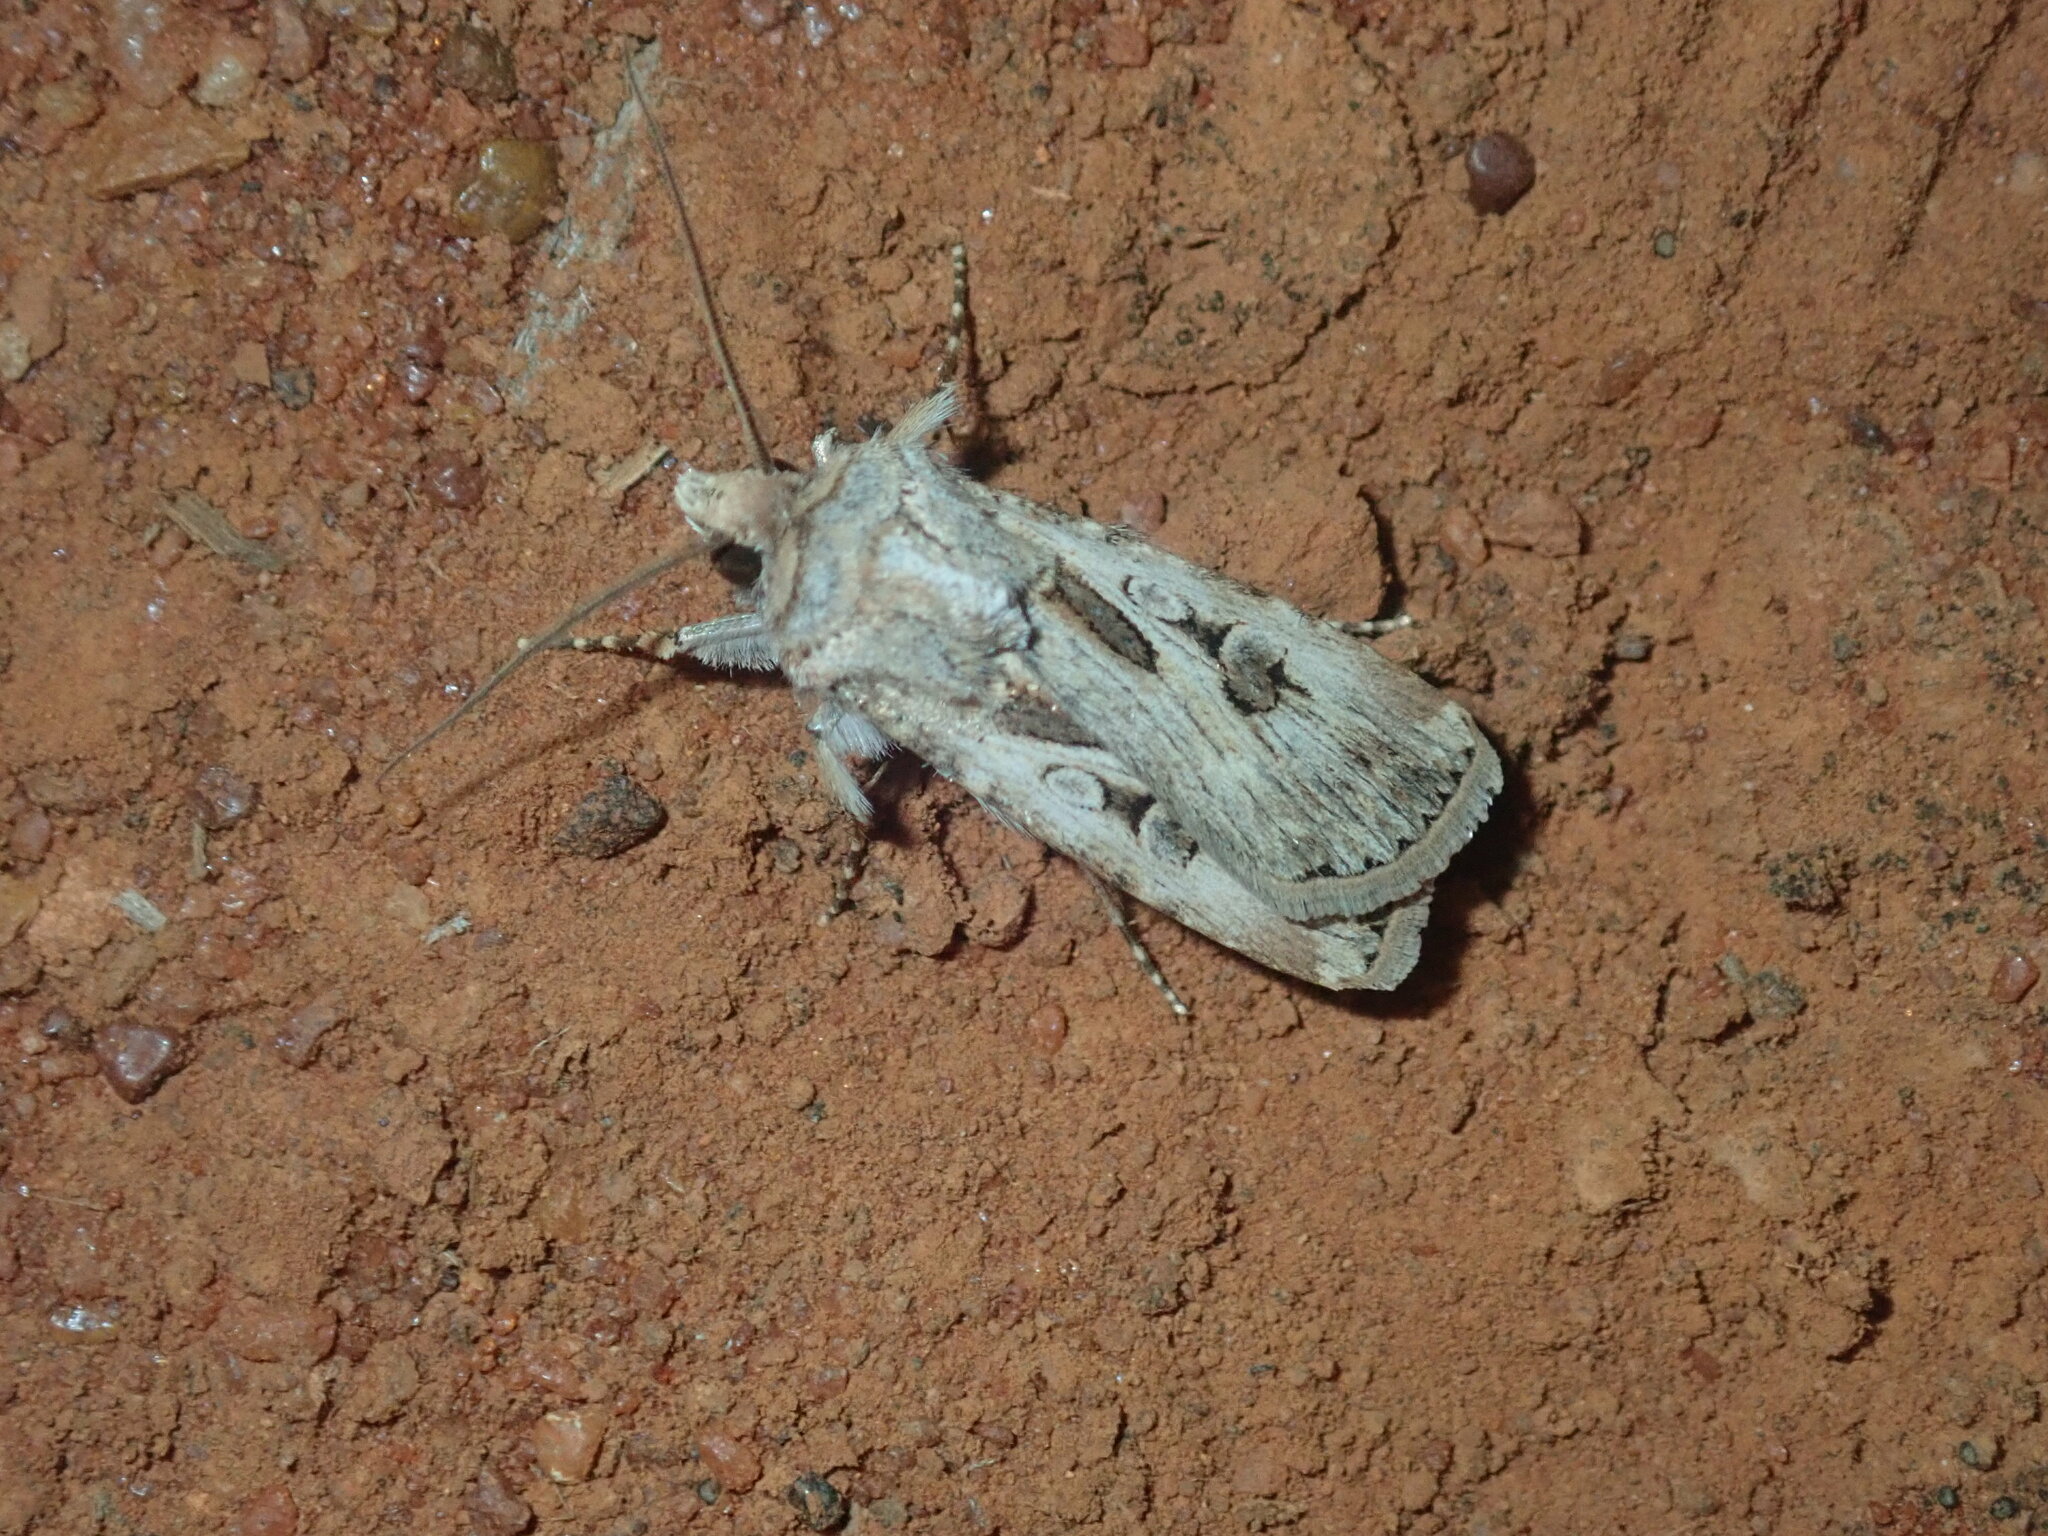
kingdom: Animalia
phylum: Arthropoda
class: Insecta
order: Lepidoptera
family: Noctuidae
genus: Agrotis
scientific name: Agrotis munda
